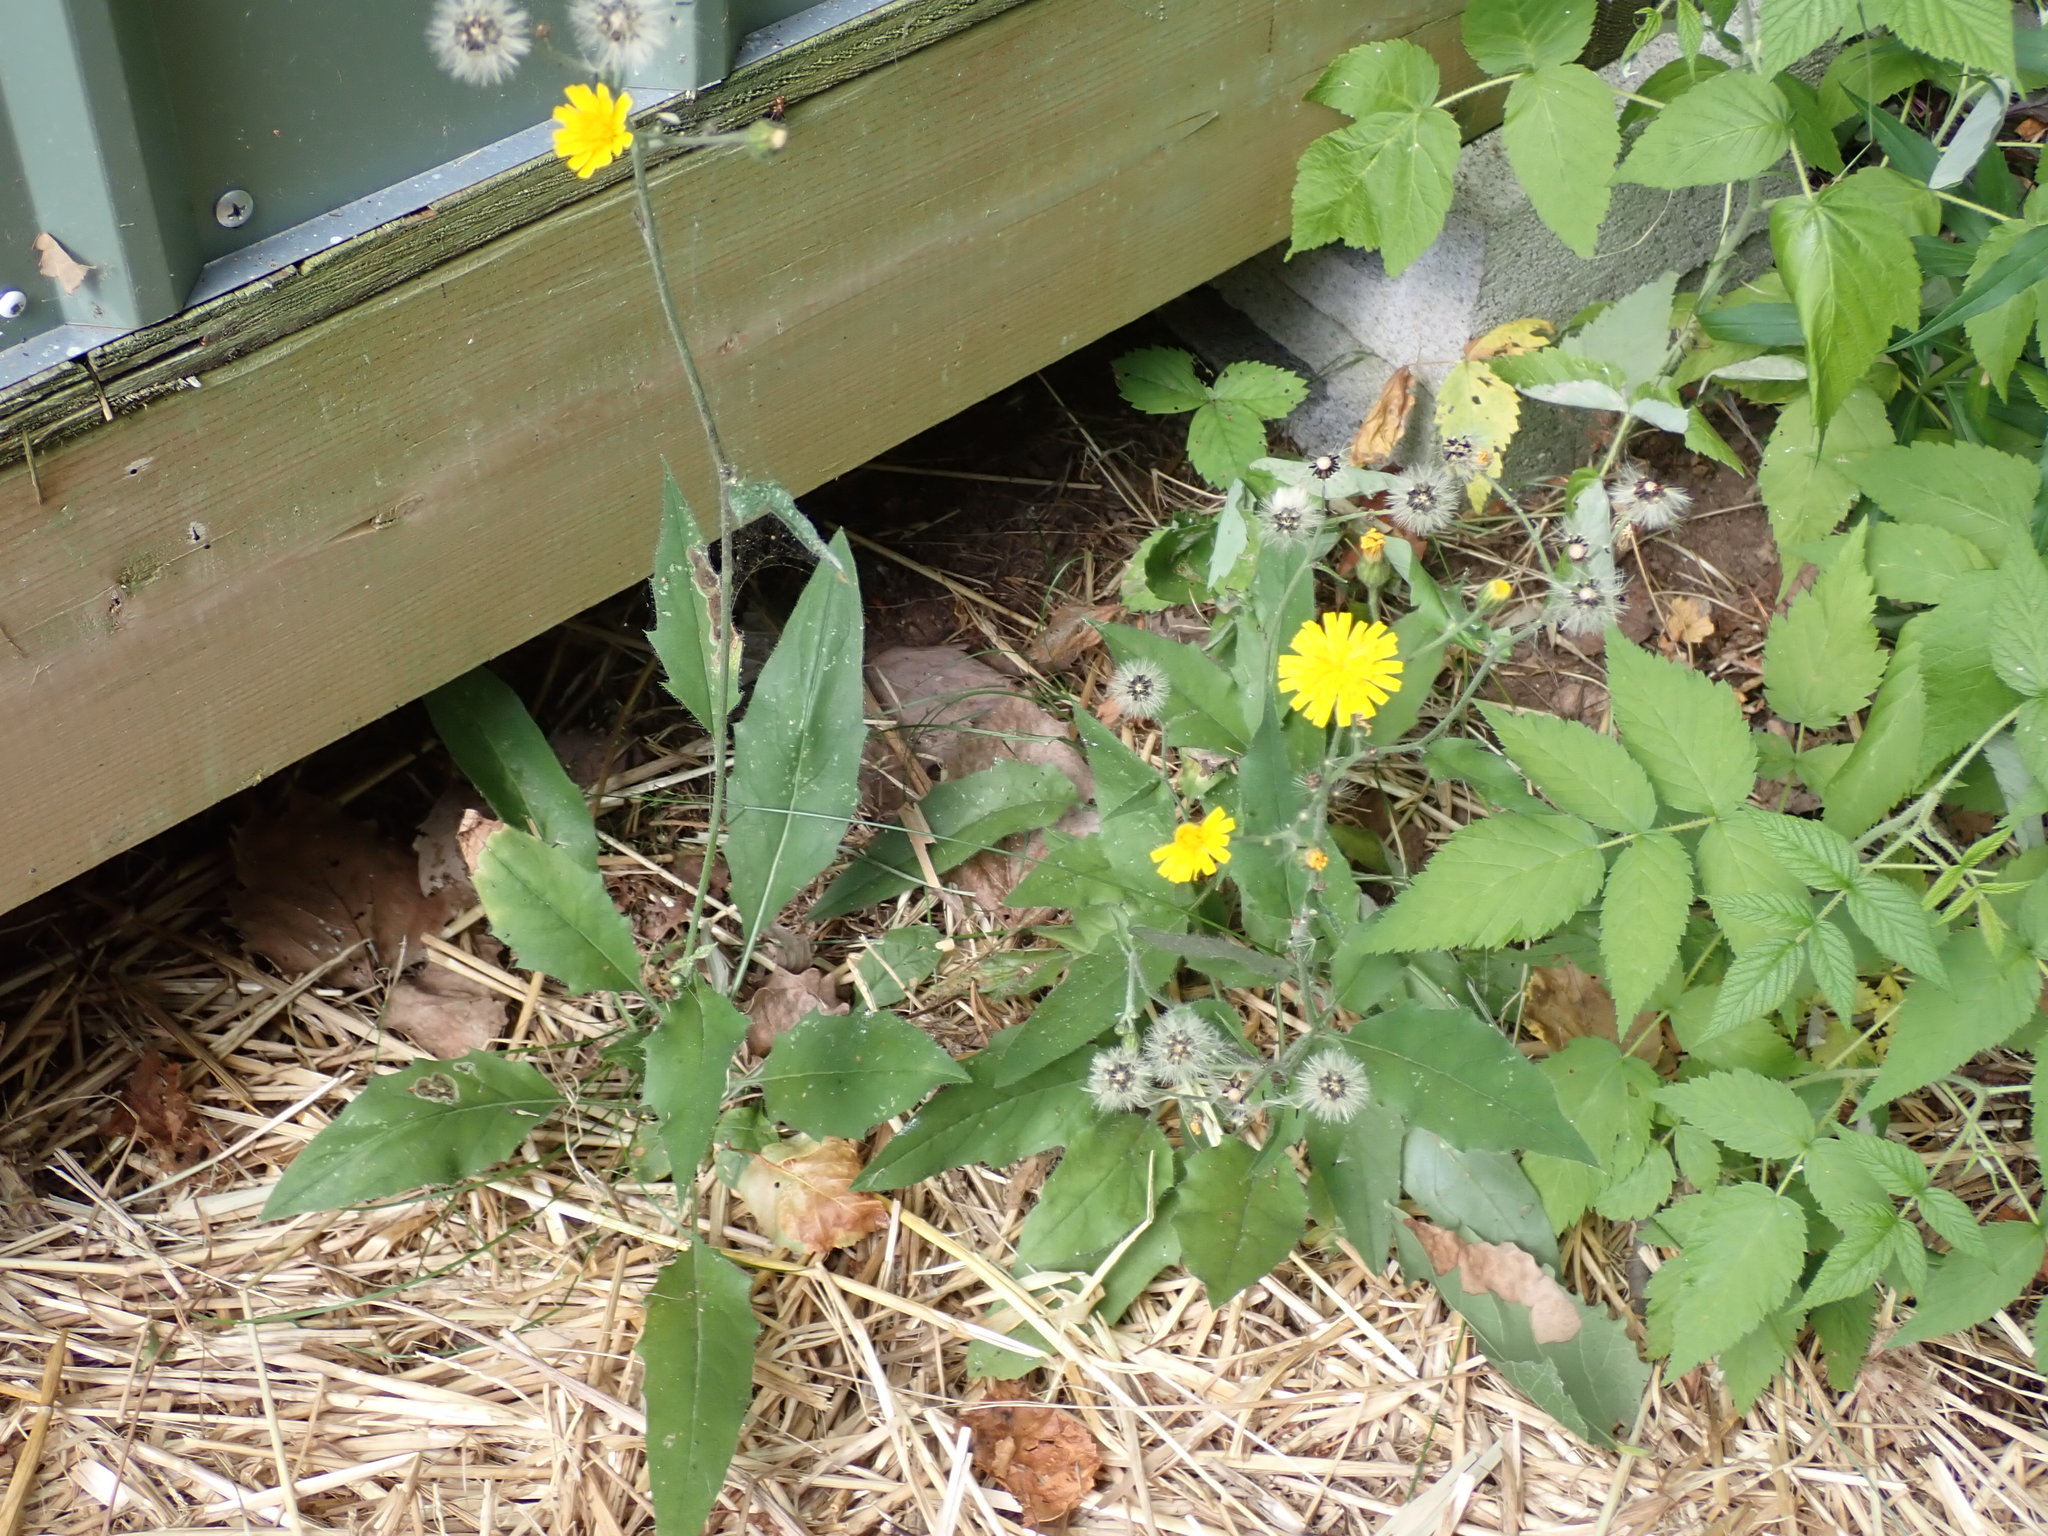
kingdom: Plantae
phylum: Tracheophyta
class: Magnoliopsida
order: Asterales
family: Asteraceae
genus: Hieracium
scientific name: Hieracium lachenalii
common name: Common hawkweed
